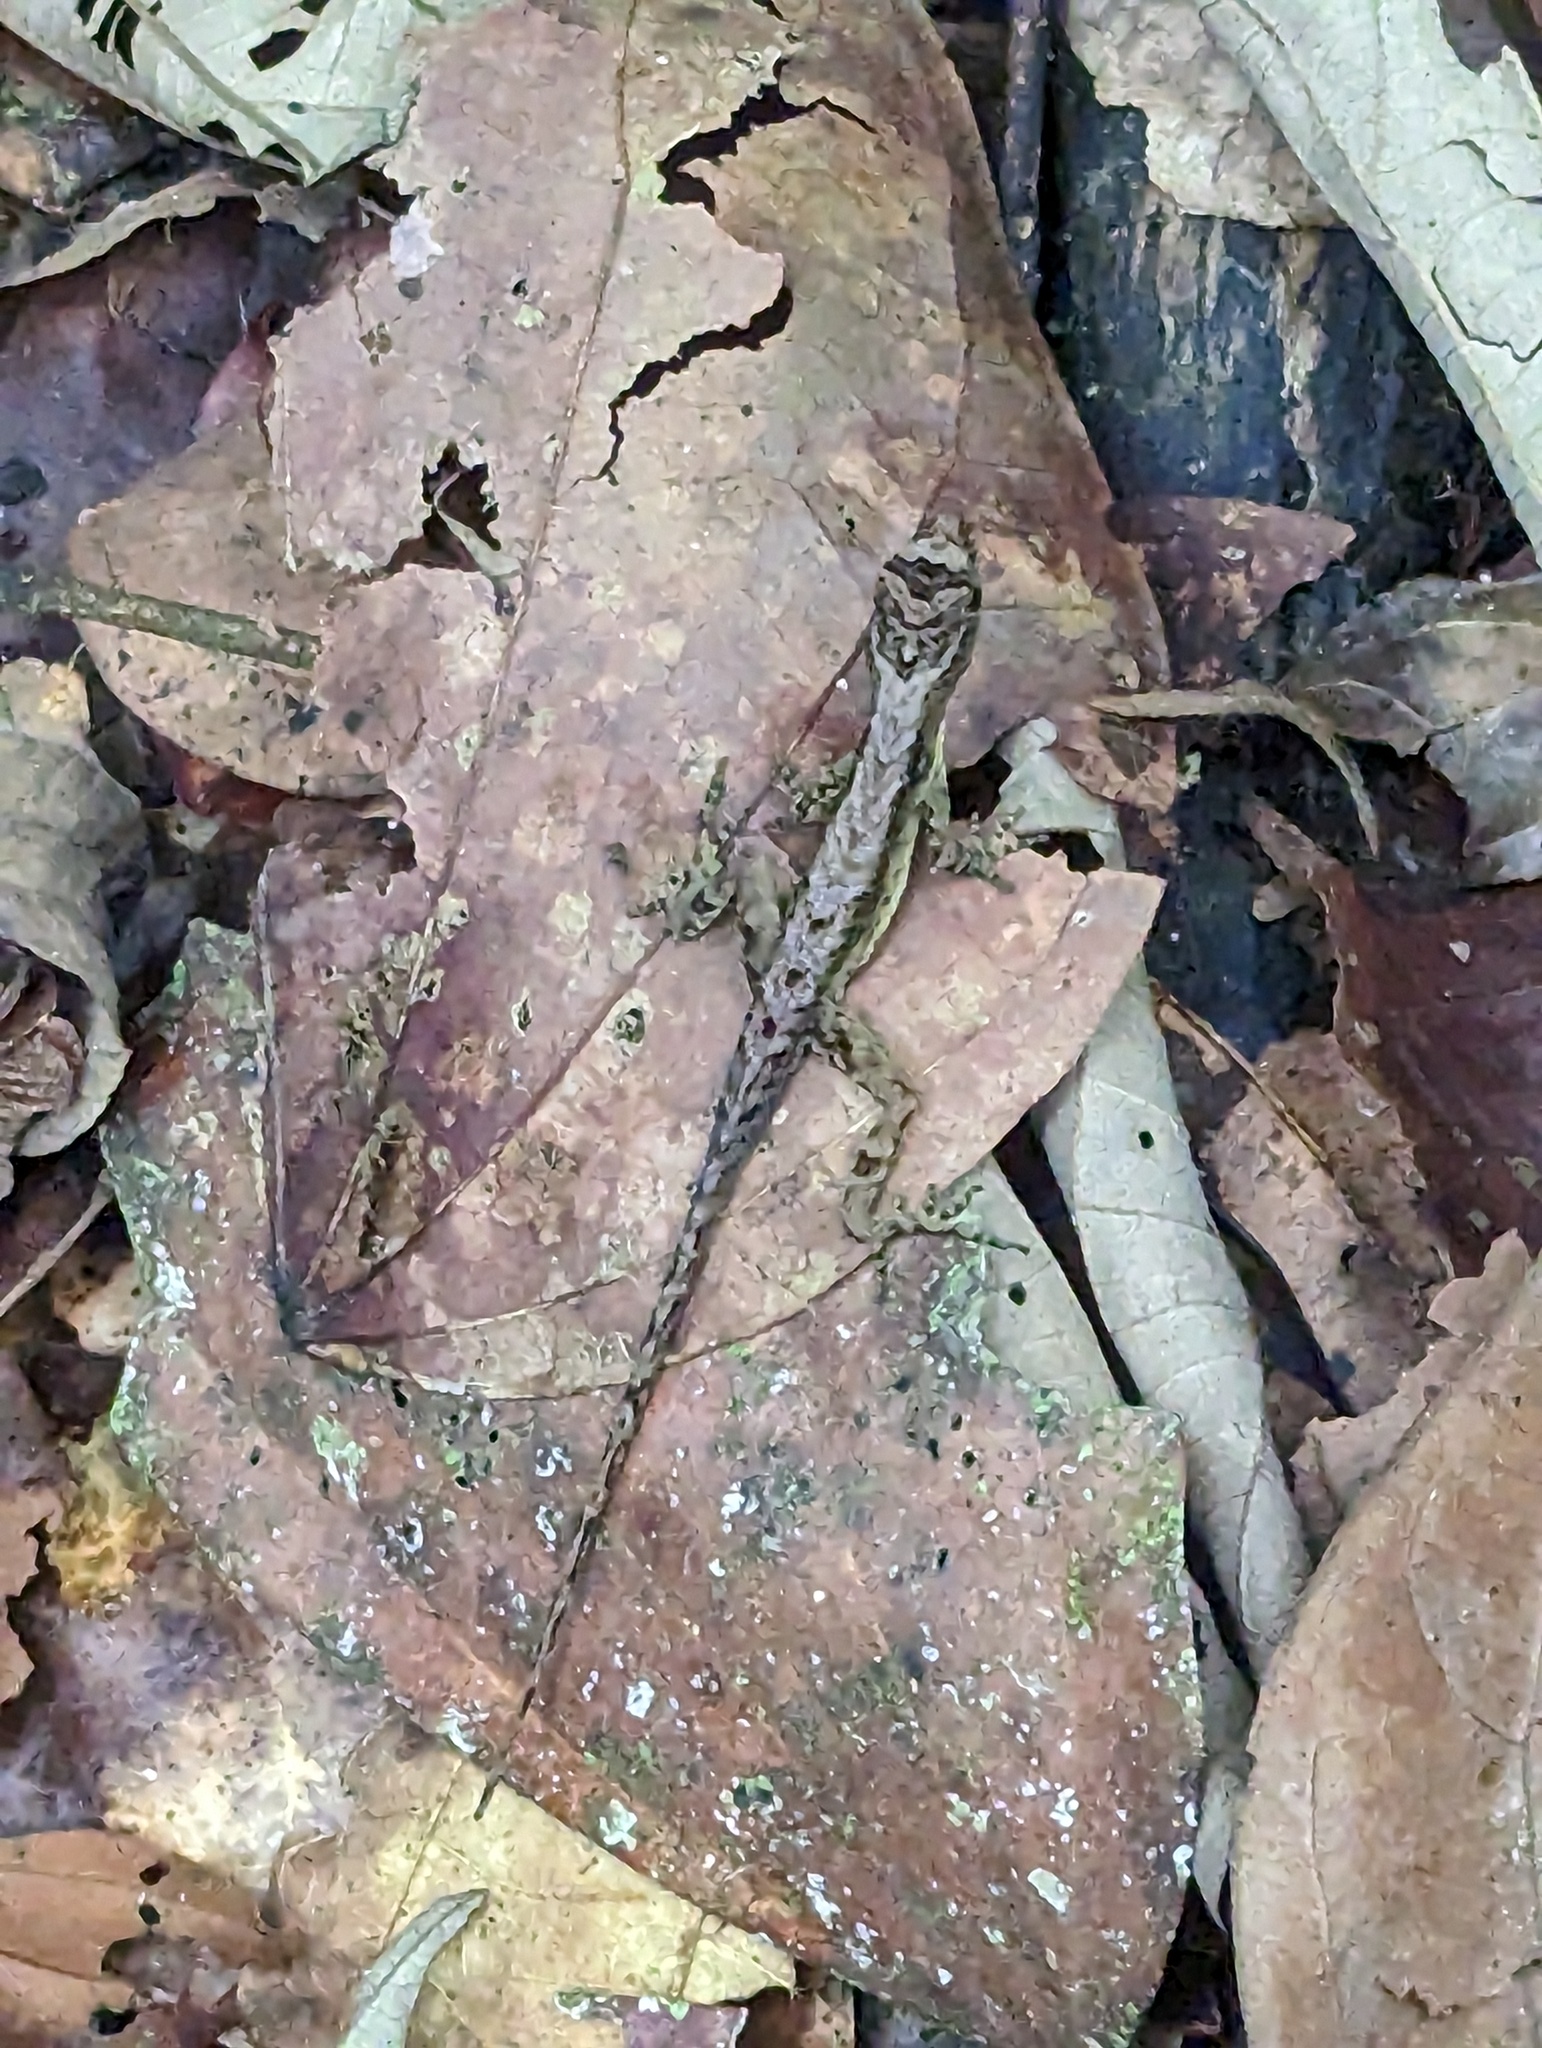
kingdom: Animalia
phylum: Chordata
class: Squamata
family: Dactyloidae
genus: Anolis
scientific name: Anolis humilis
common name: Humble anole
